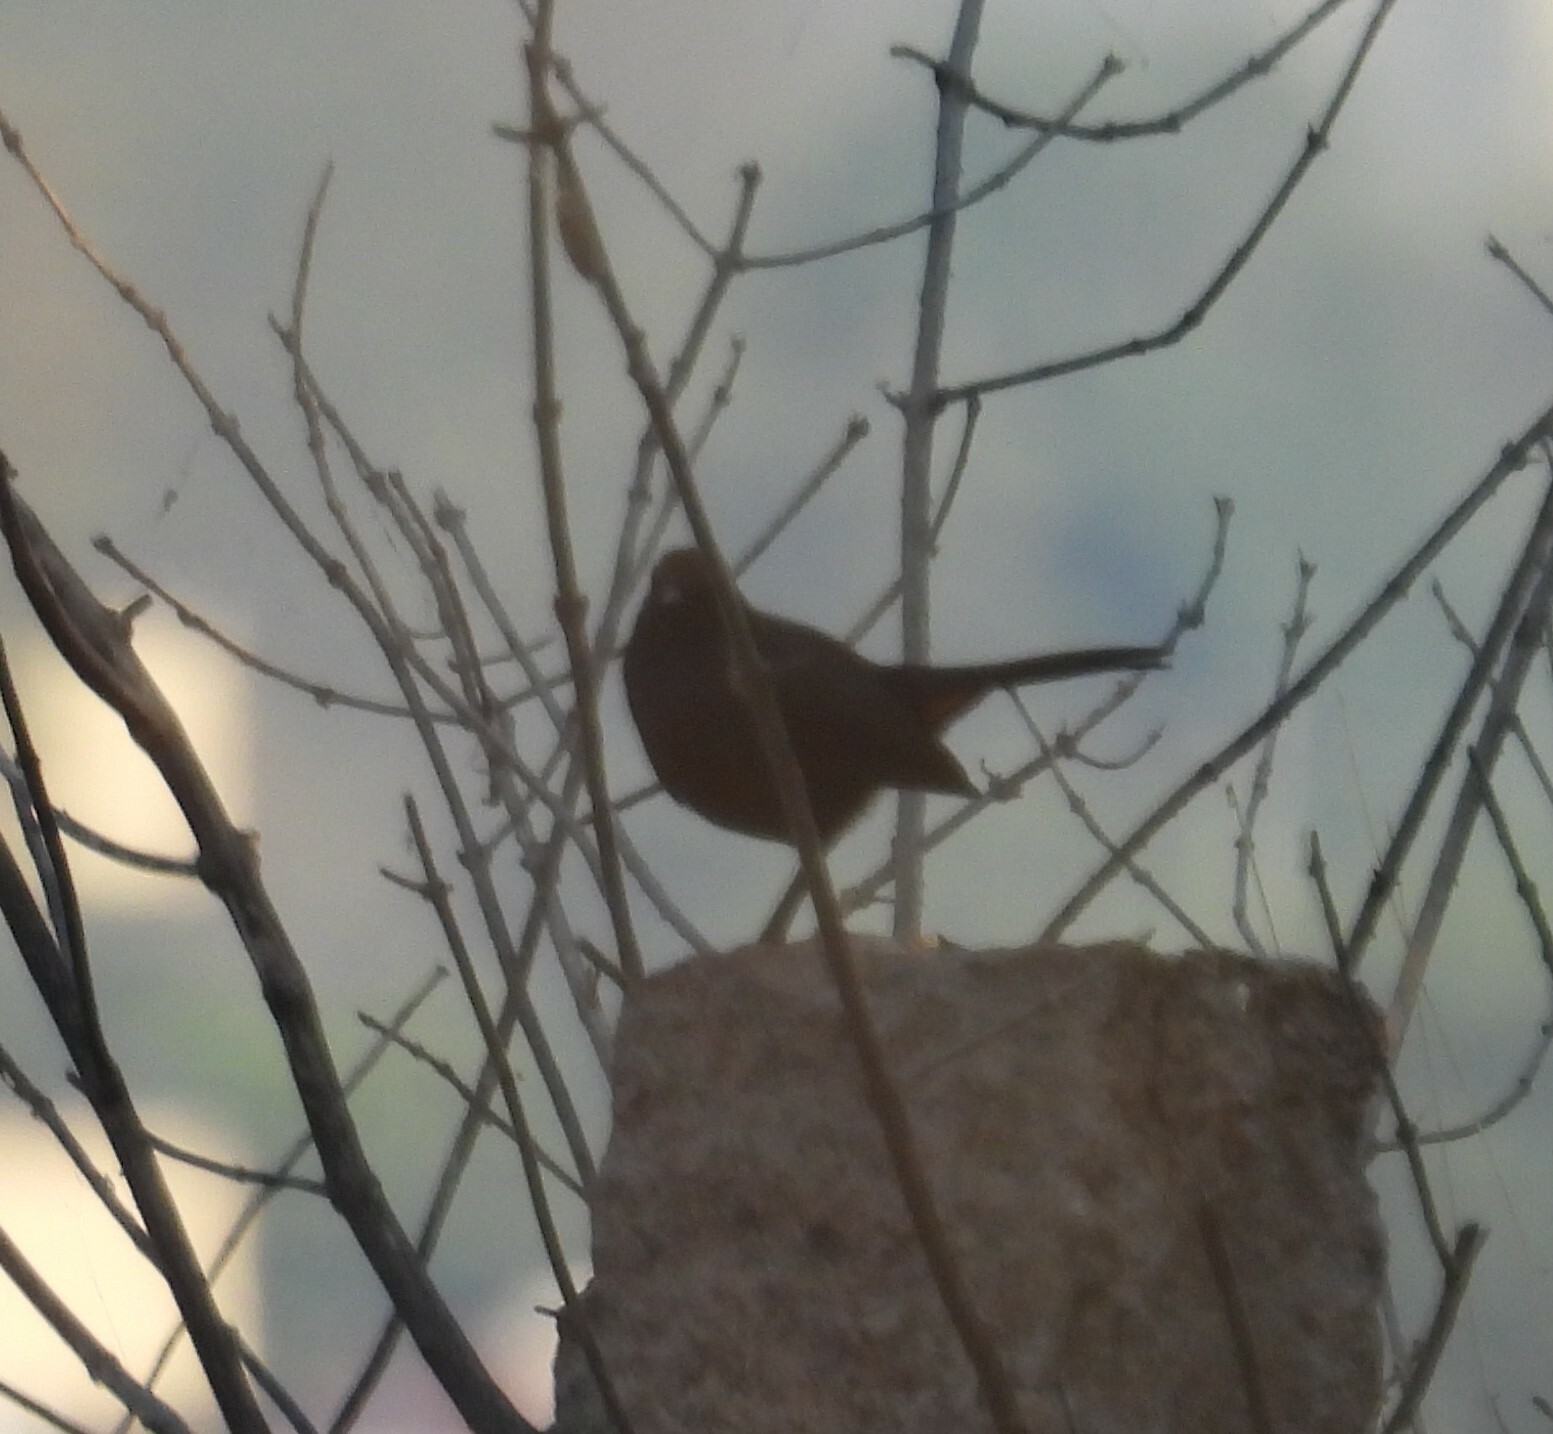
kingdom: Animalia
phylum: Chordata
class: Aves
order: Passeriformes
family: Muscicapidae
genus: Saxicoloides
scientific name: Saxicoloides fulicatus
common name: Indian robin
